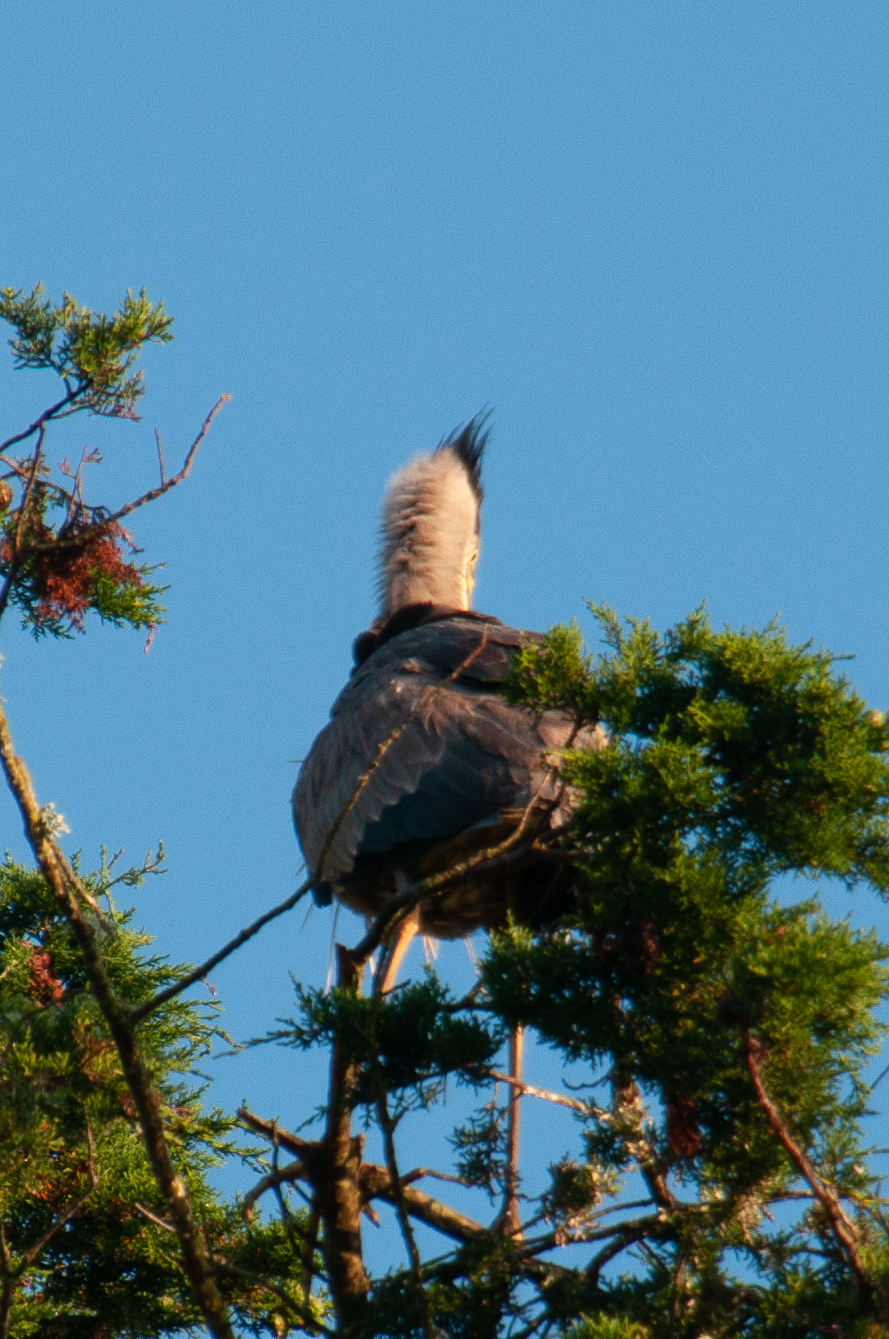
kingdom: Animalia
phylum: Chordata
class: Aves
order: Pelecaniformes
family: Ardeidae
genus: Ardea
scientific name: Ardea herodias
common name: Great blue heron
